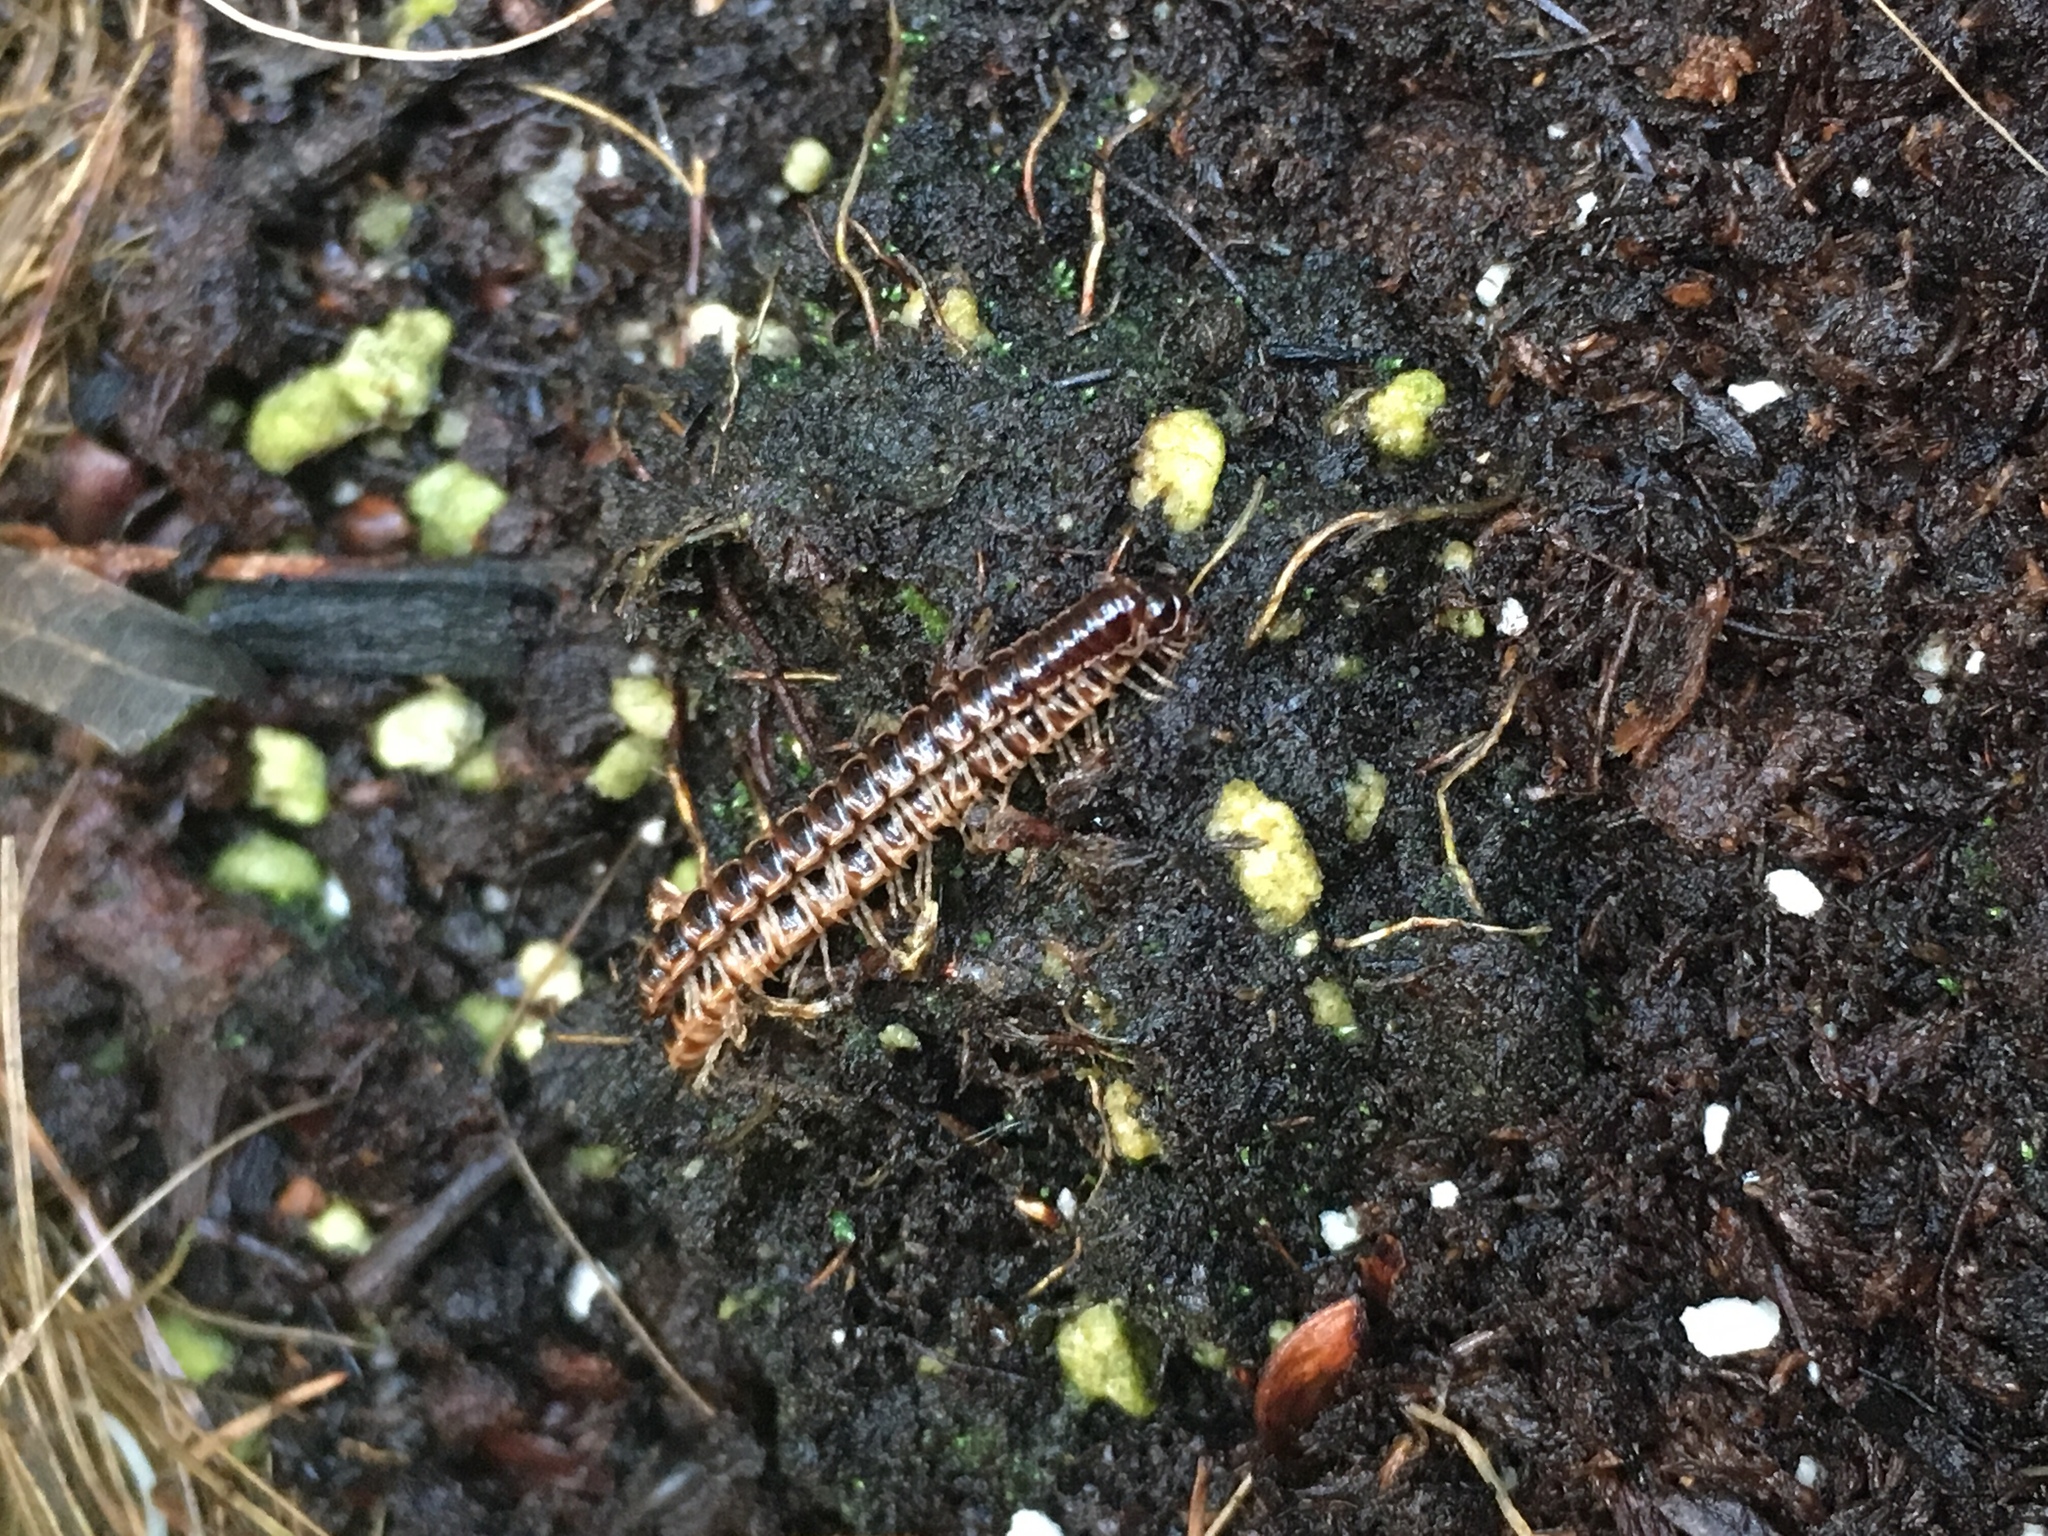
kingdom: Animalia
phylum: Arthropoda
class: Diplopoda
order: Polydesmida
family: Paradoxosomatidae
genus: Oxidus
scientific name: Oxidus gracilis
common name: Greenhouse millipede
